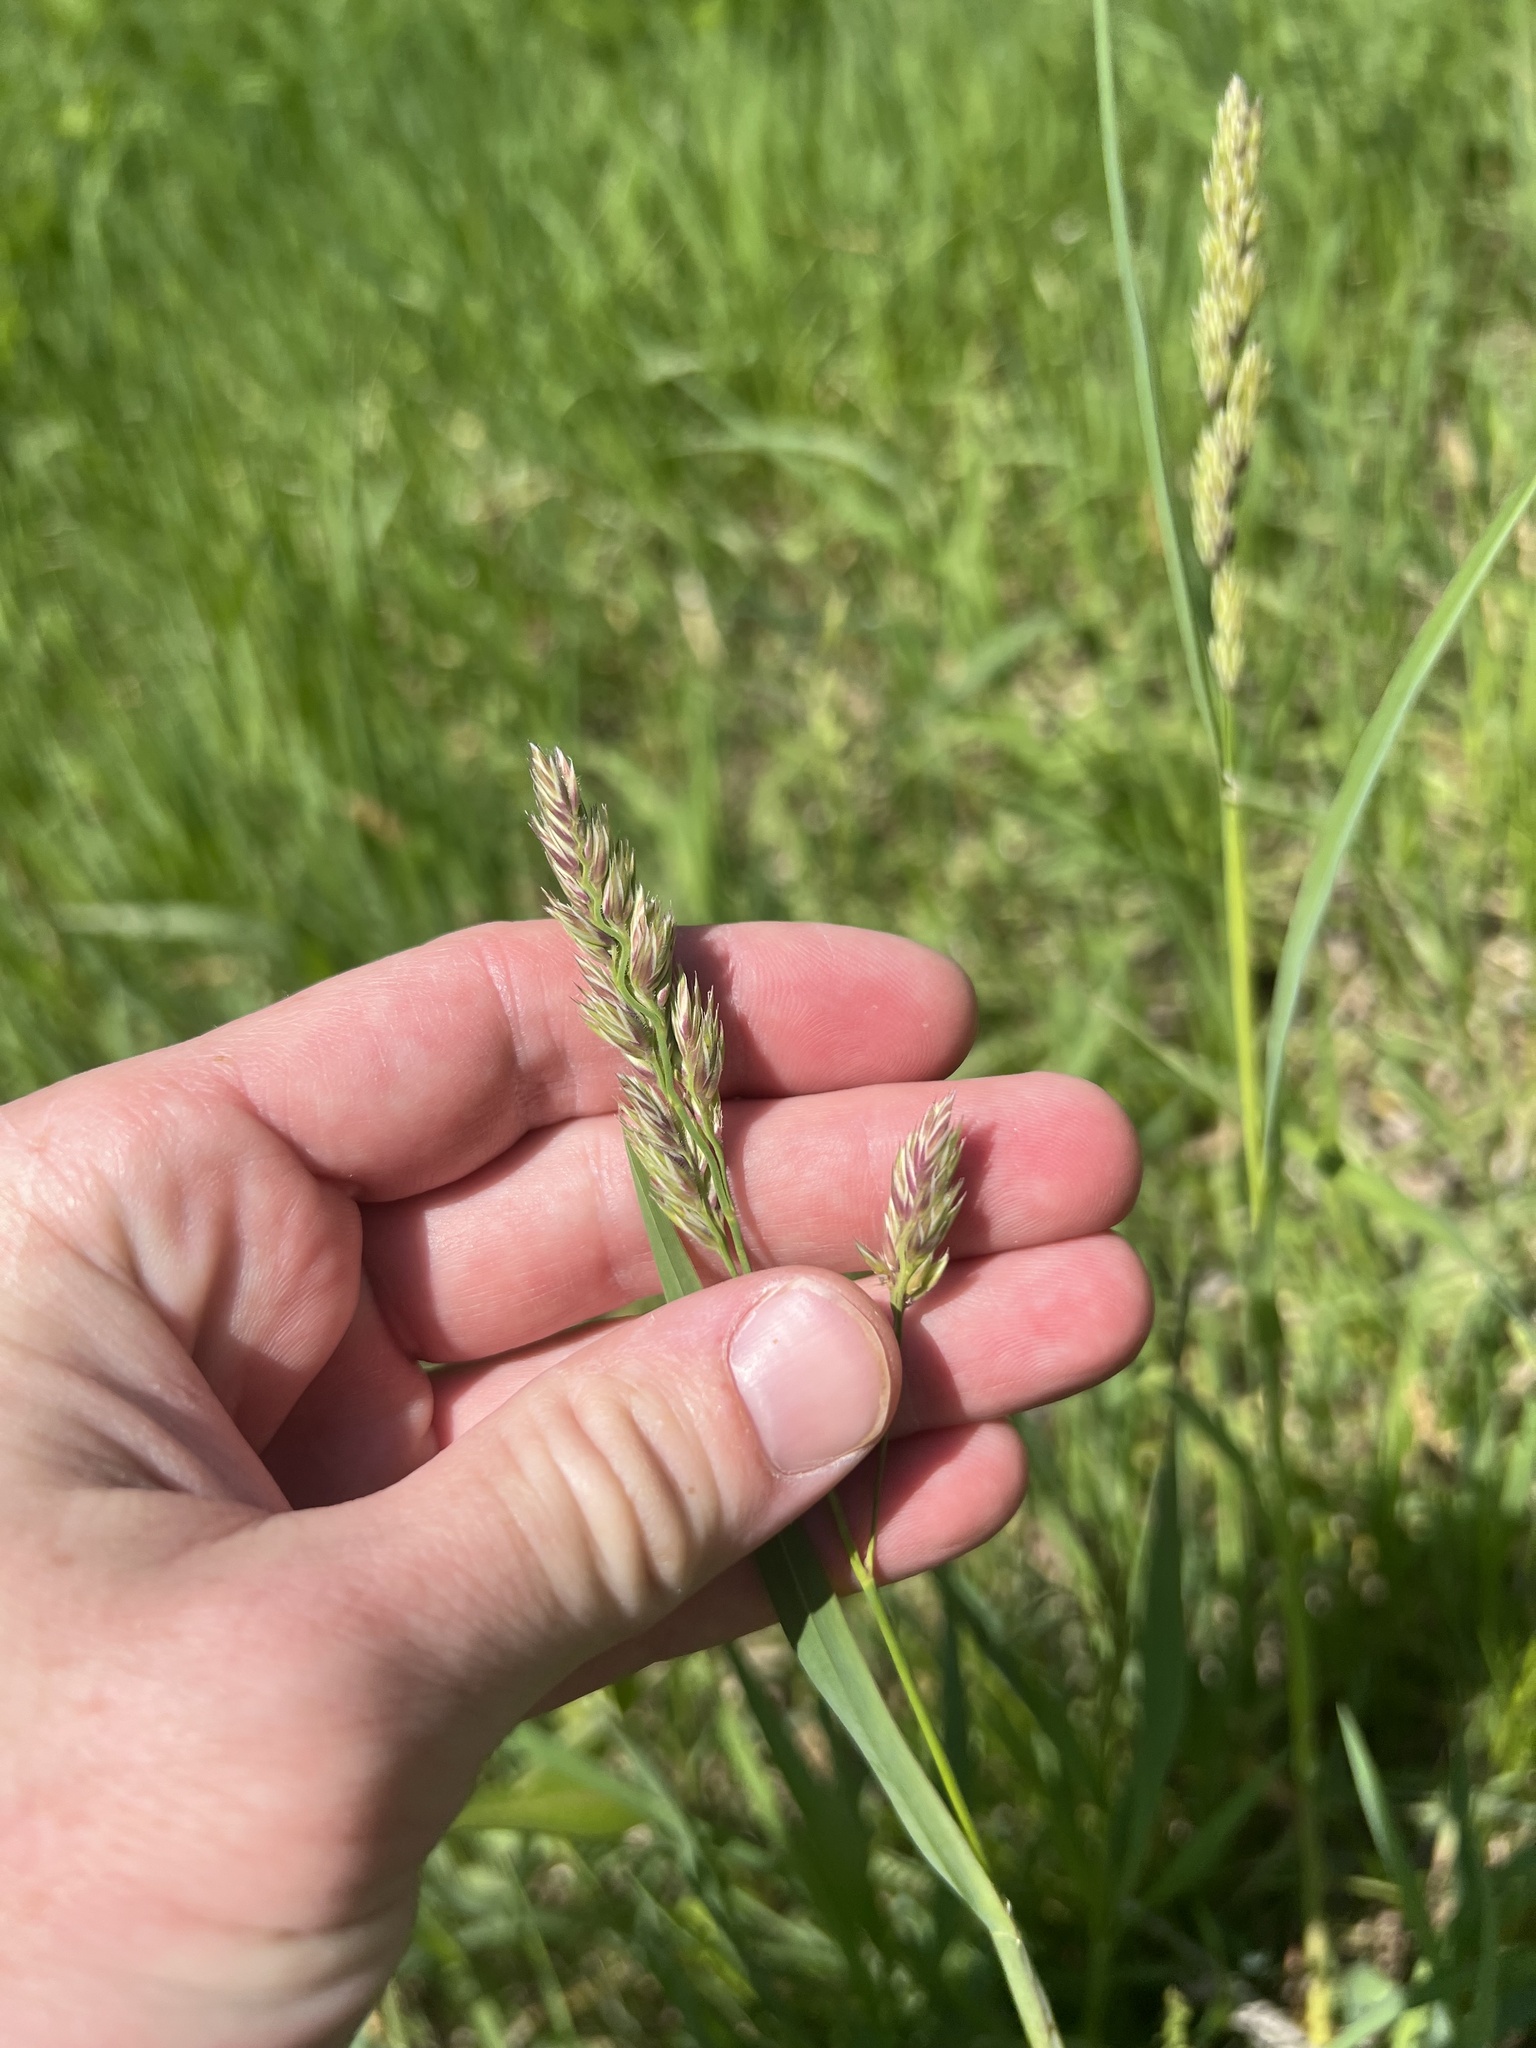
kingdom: Plantae
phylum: Tracheophyta
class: Liliopsida
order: Poales
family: Poaceae
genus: Dactylis
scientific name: Dactylis glomerata
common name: Orchardgrass
